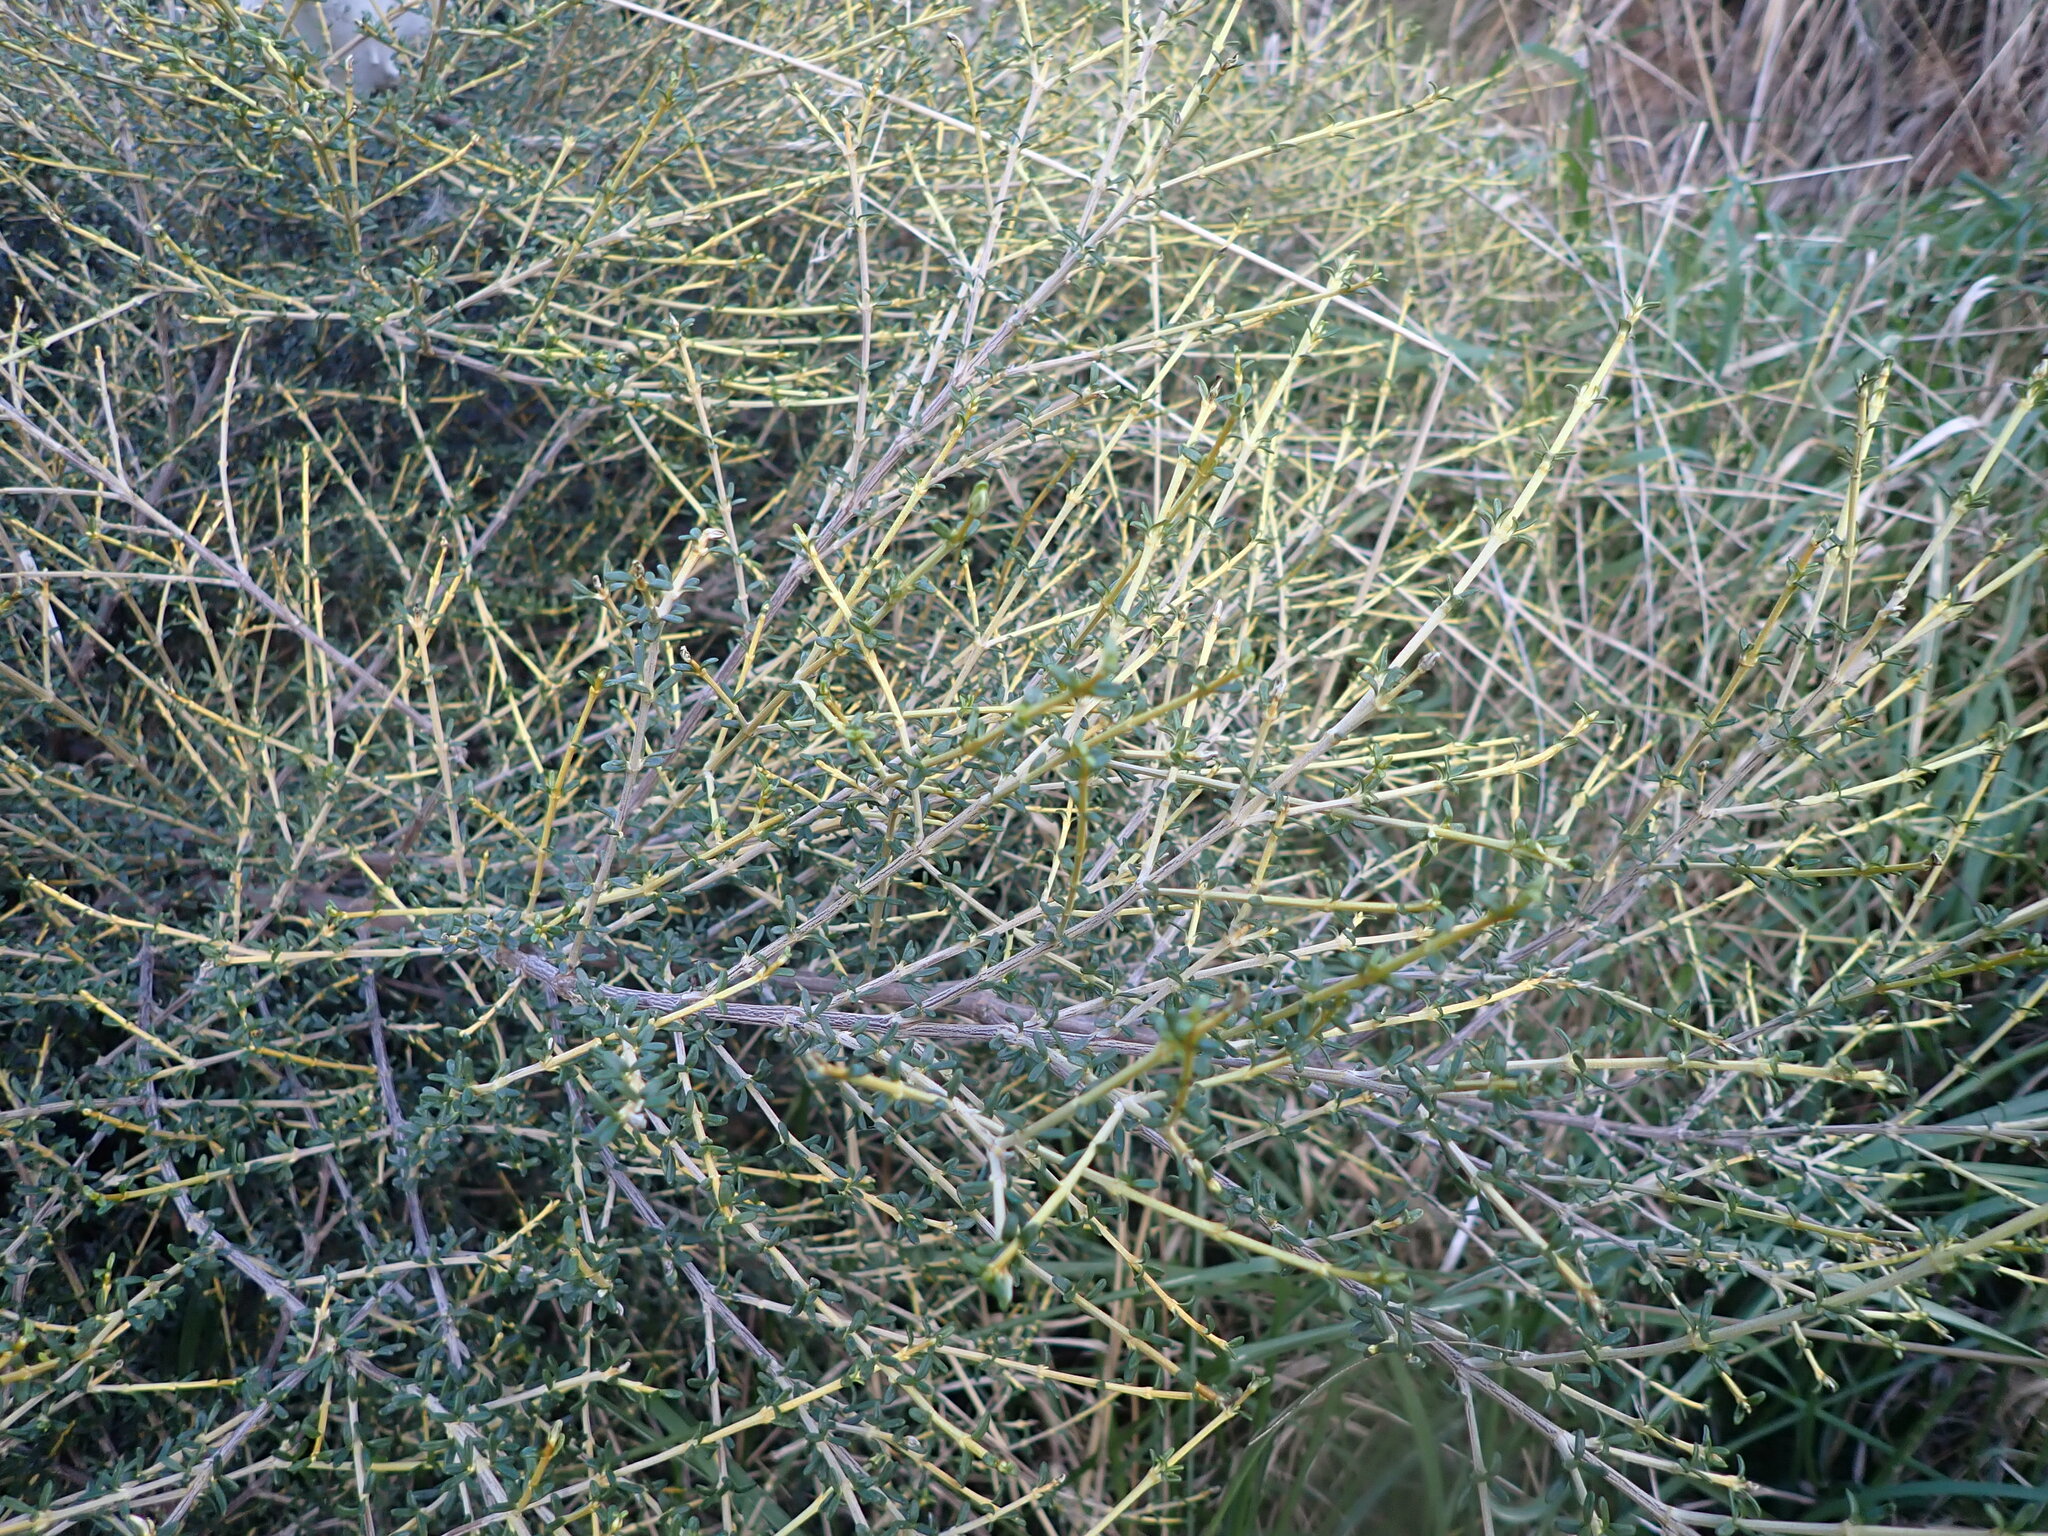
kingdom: Plantae
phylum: Tracheophyta
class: Magnoliopsida
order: Asterales
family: Asteraceae
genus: Olearia
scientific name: Olearia solandri
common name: Coastal daisybush
